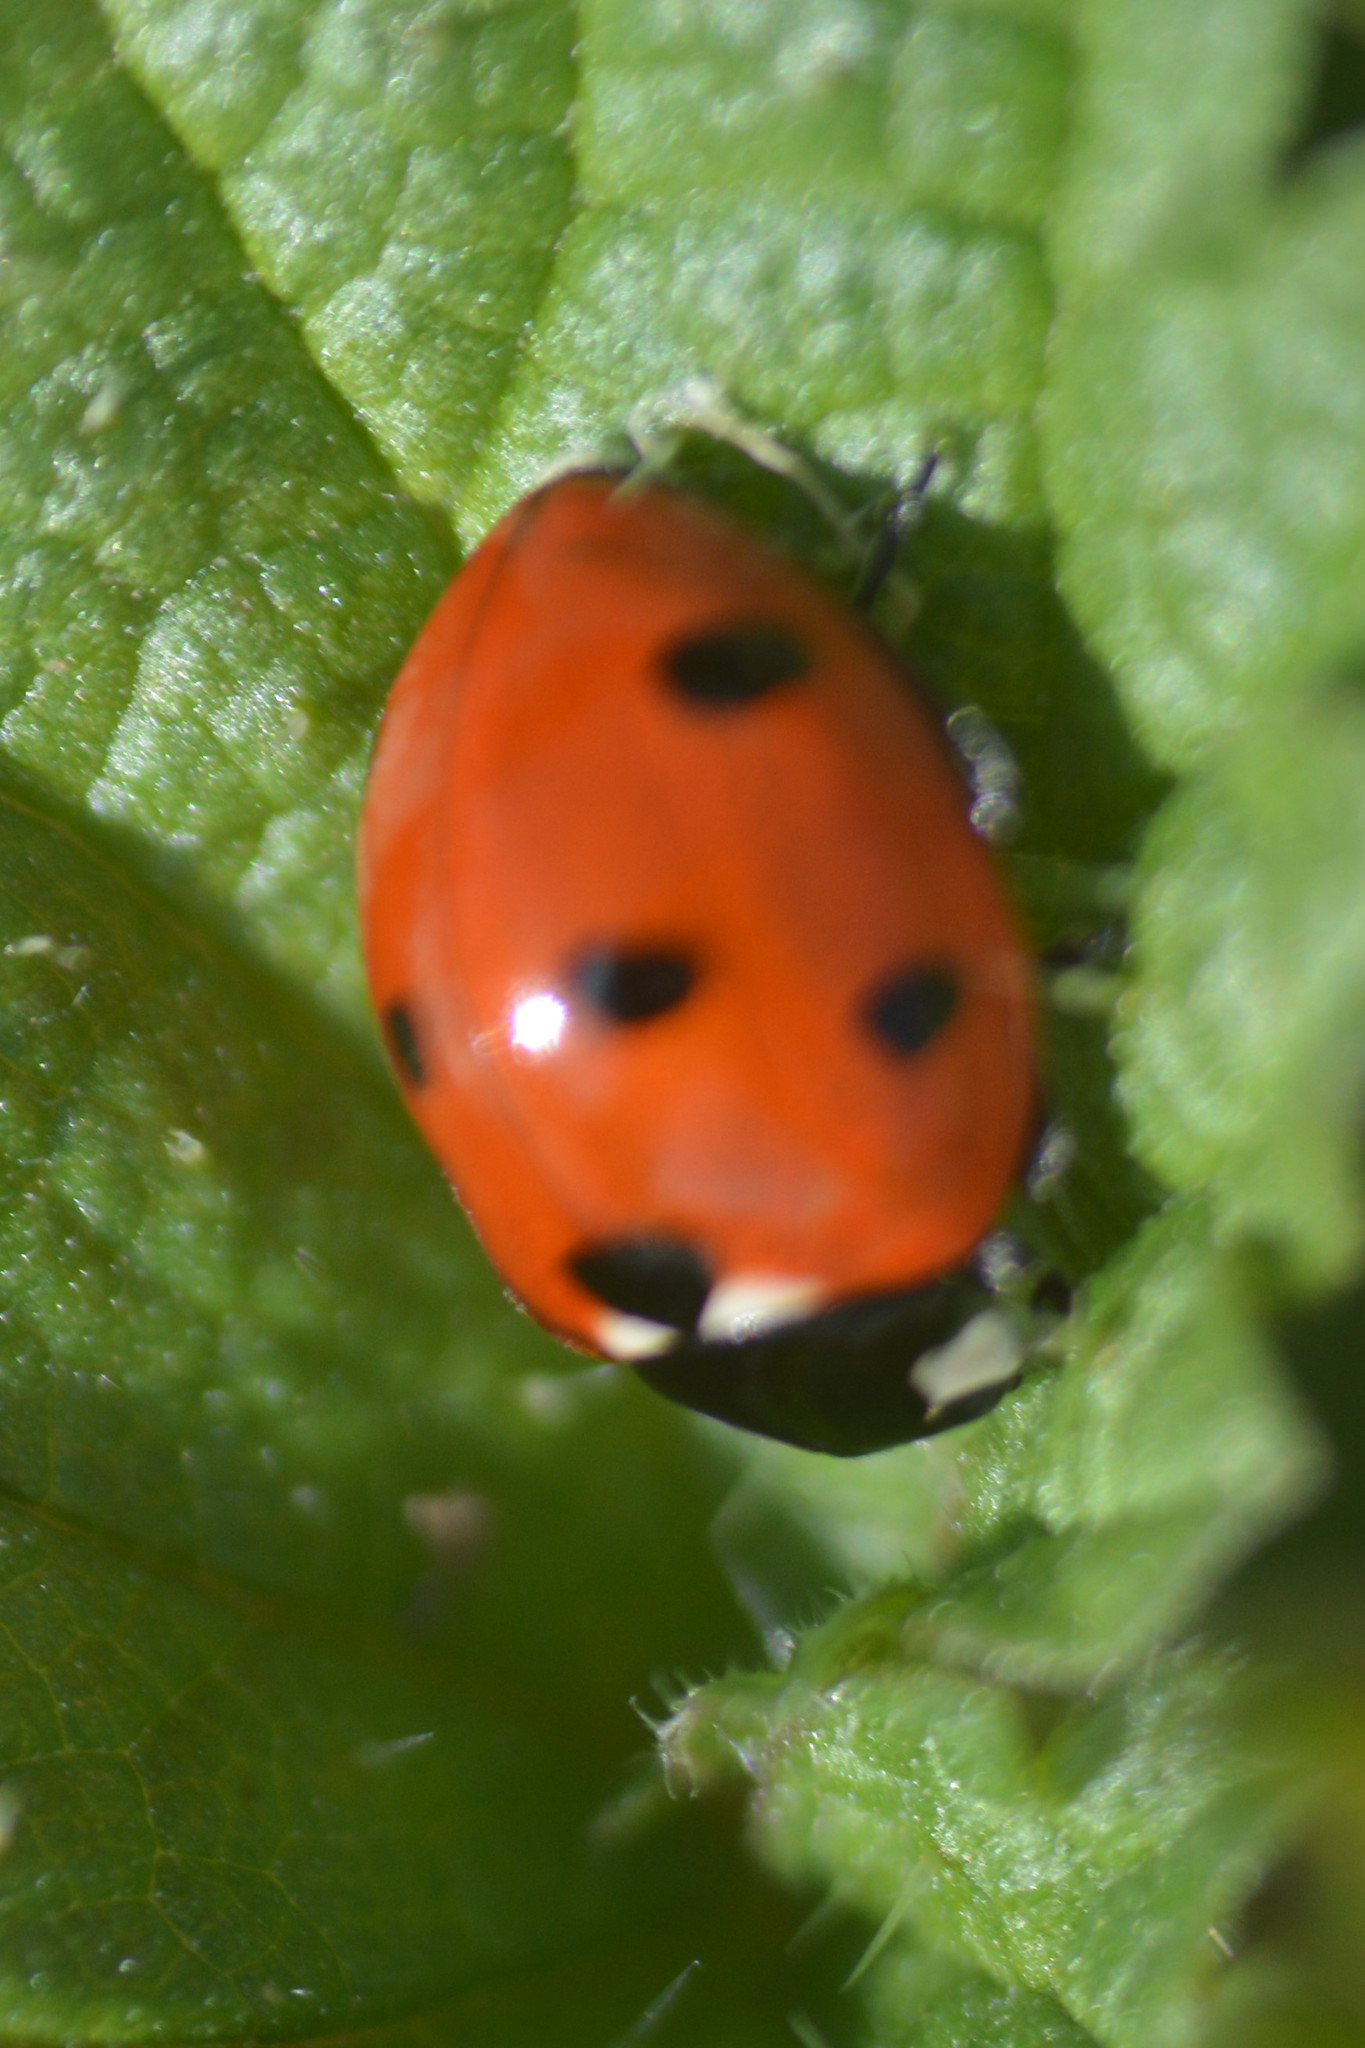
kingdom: Animalia
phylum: Arthropoda
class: Insecta
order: Coleoptera
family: Coccinellidae
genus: Coccinella
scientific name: Coccinella septempunctata
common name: Sevenspotted lady beetle
